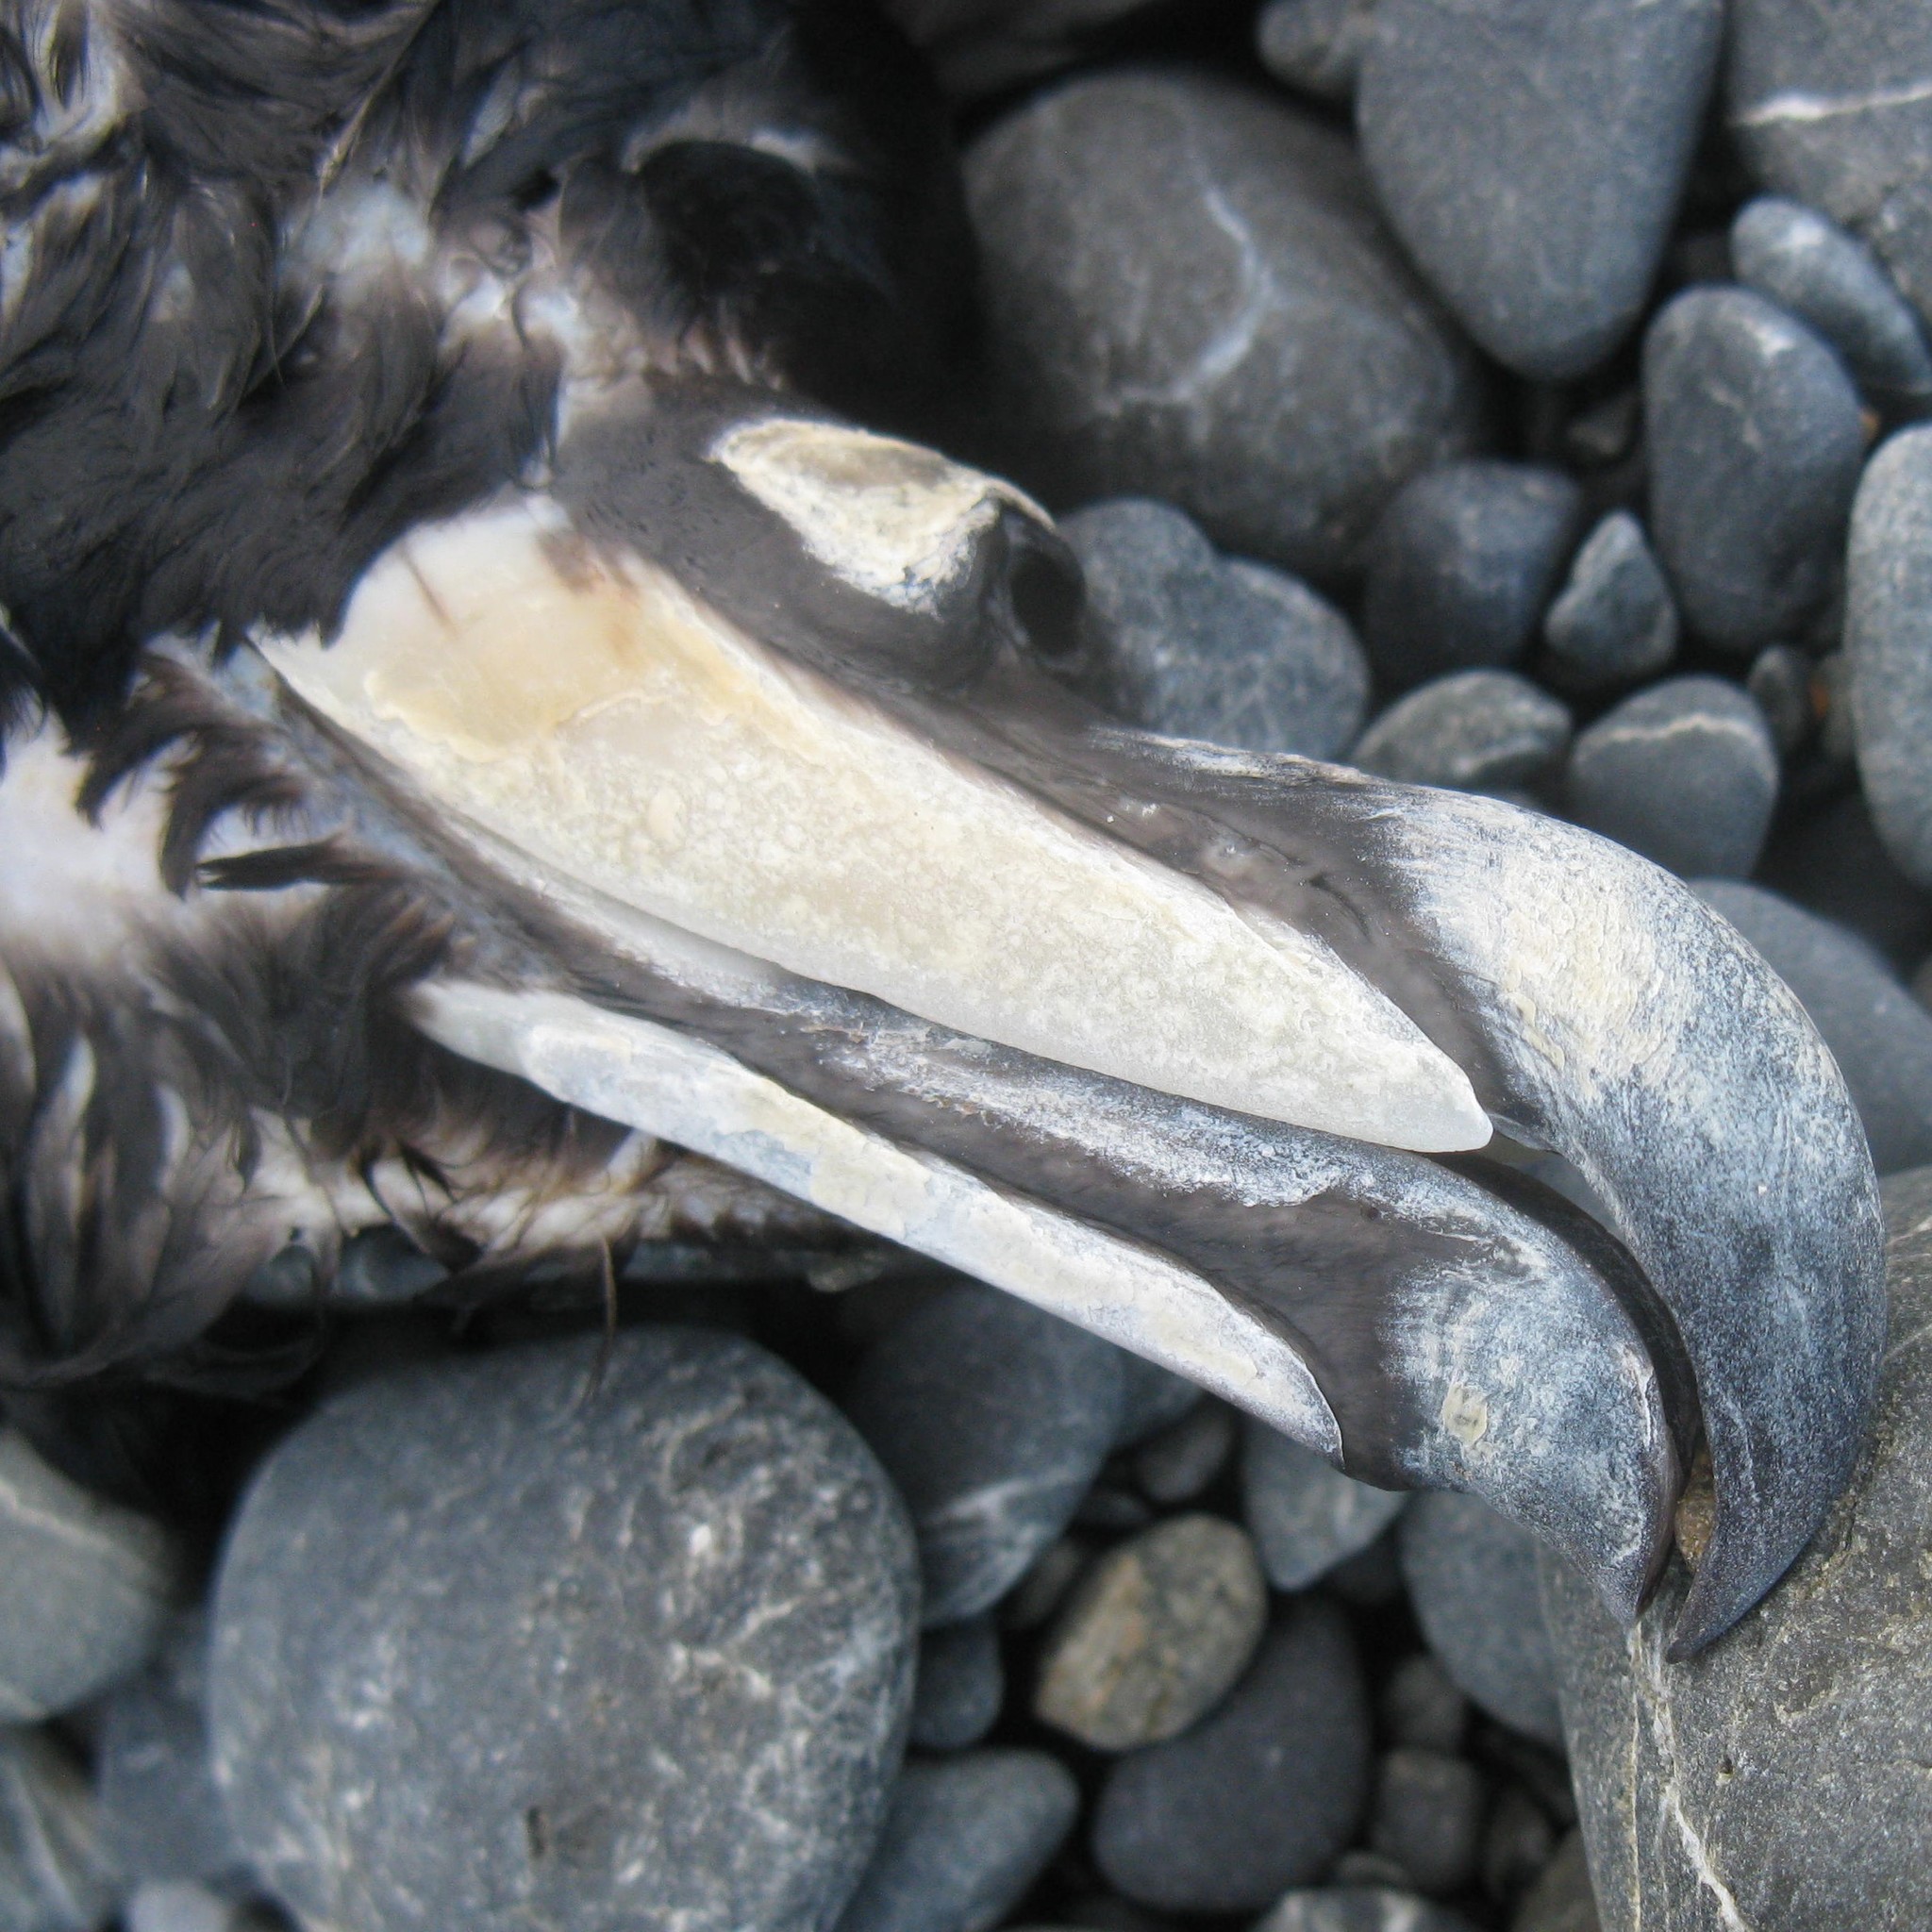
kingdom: Animalia
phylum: Chordata
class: Aves
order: Procellariiformes
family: Procellariidae
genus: Procellaria
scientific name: Procellaria westlandica
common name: Westland petrel
